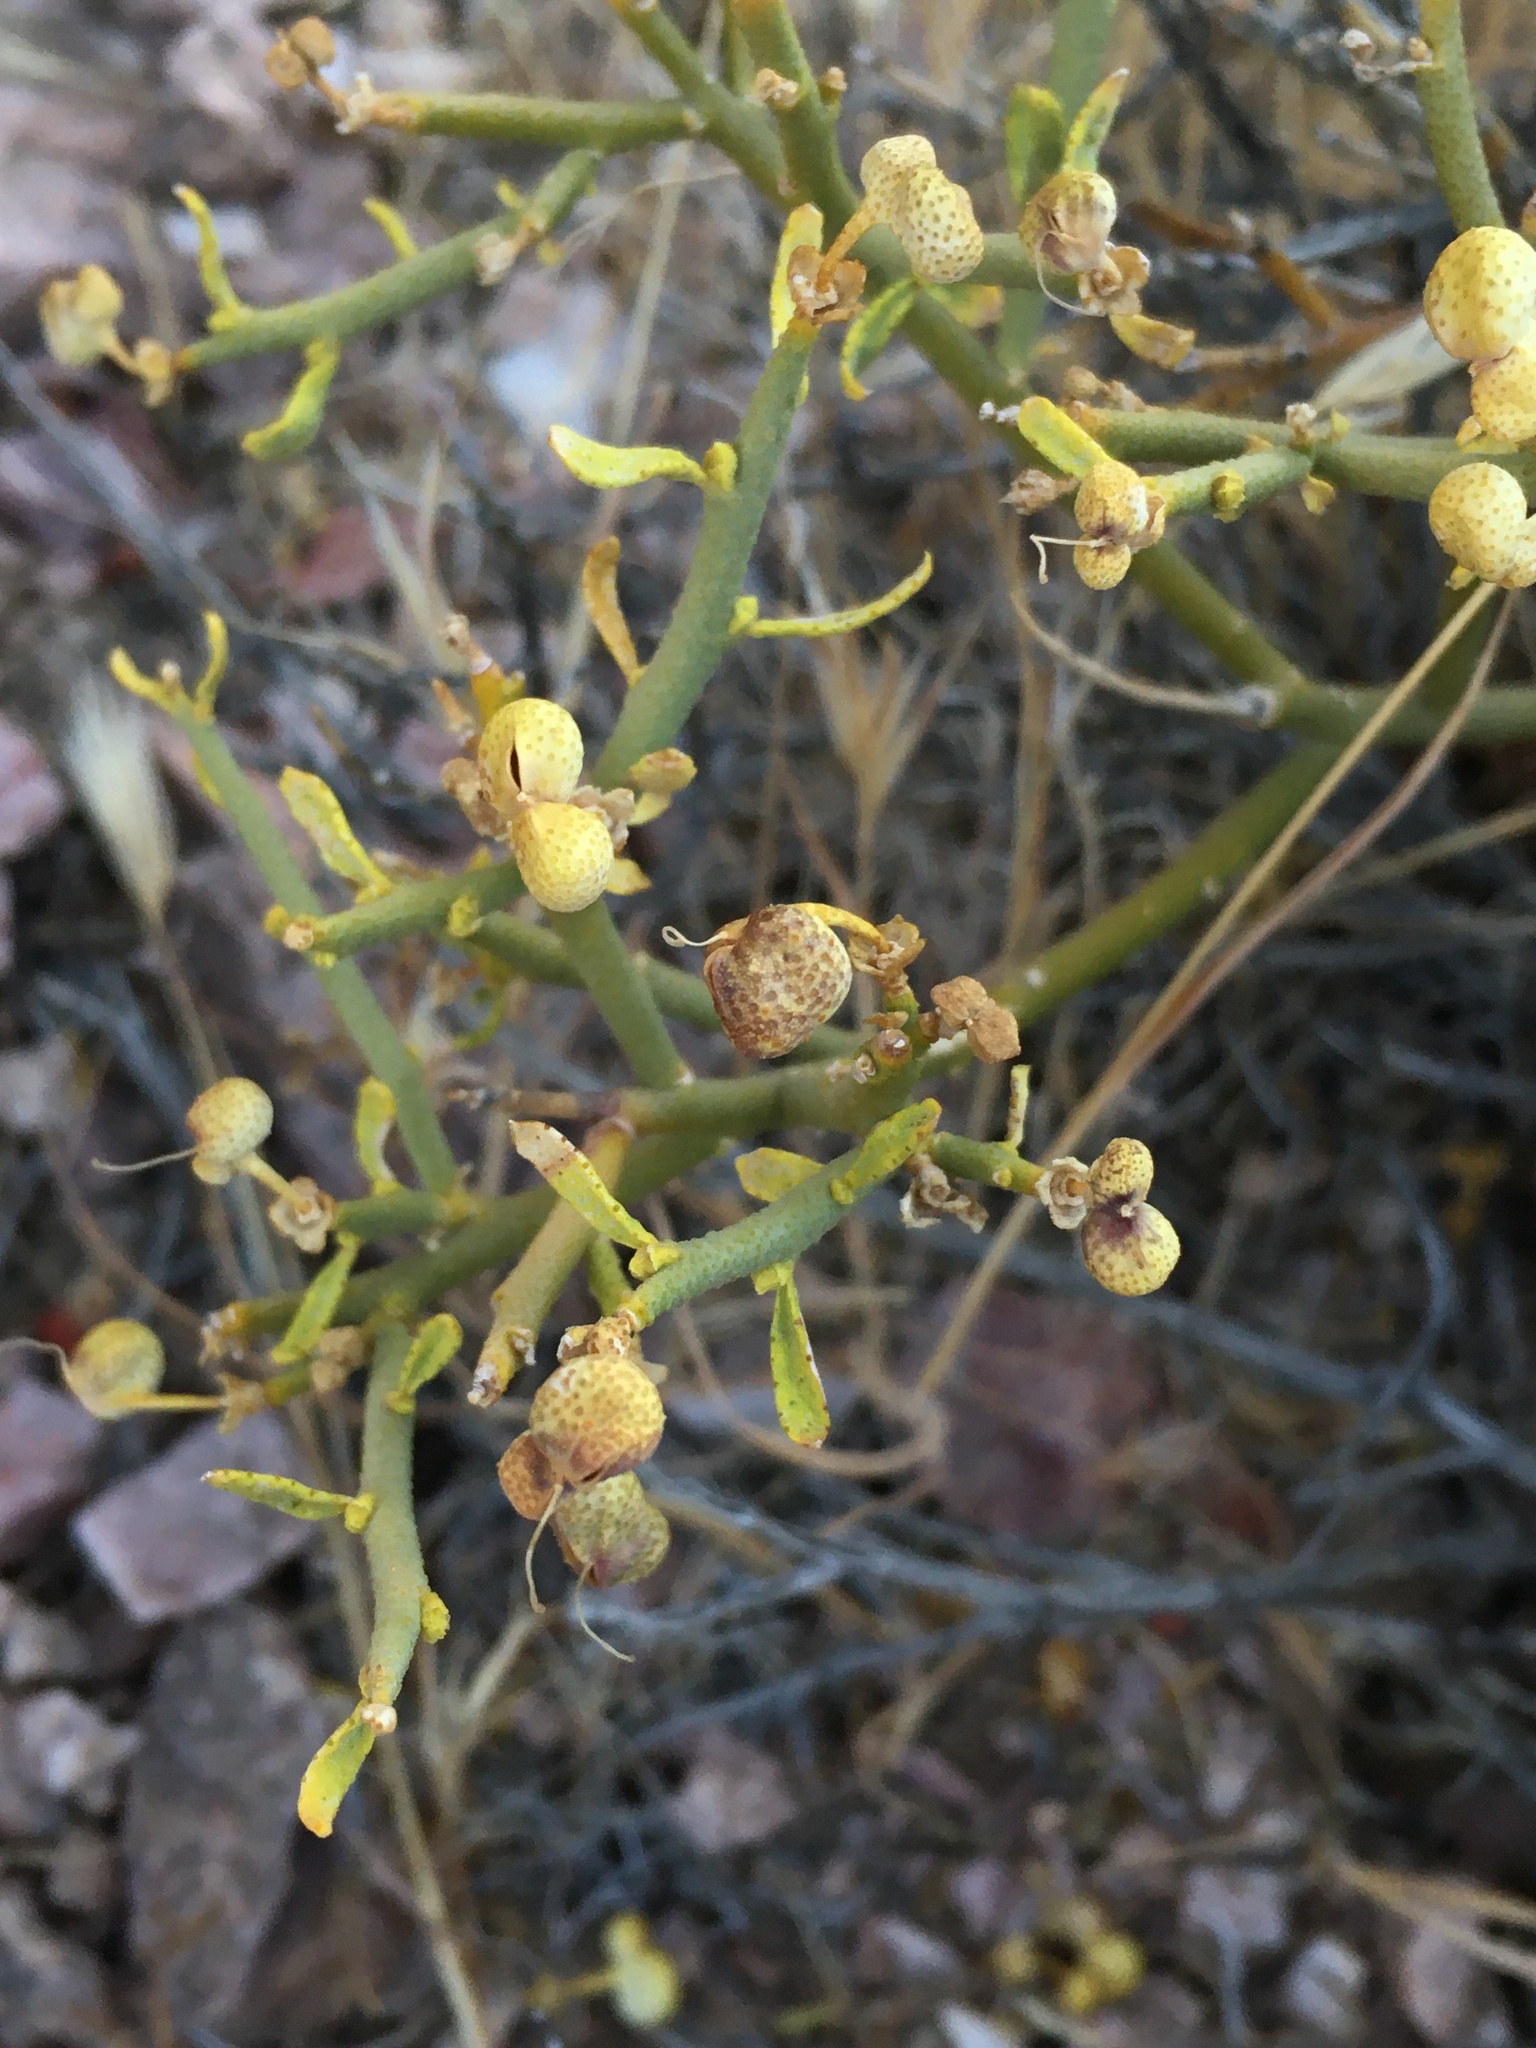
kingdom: Plantae
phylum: Tracheophyta
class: Magnoliopsida
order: Sapindales
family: Rutaceae
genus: Thamnosma
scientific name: Thamnosma montana
